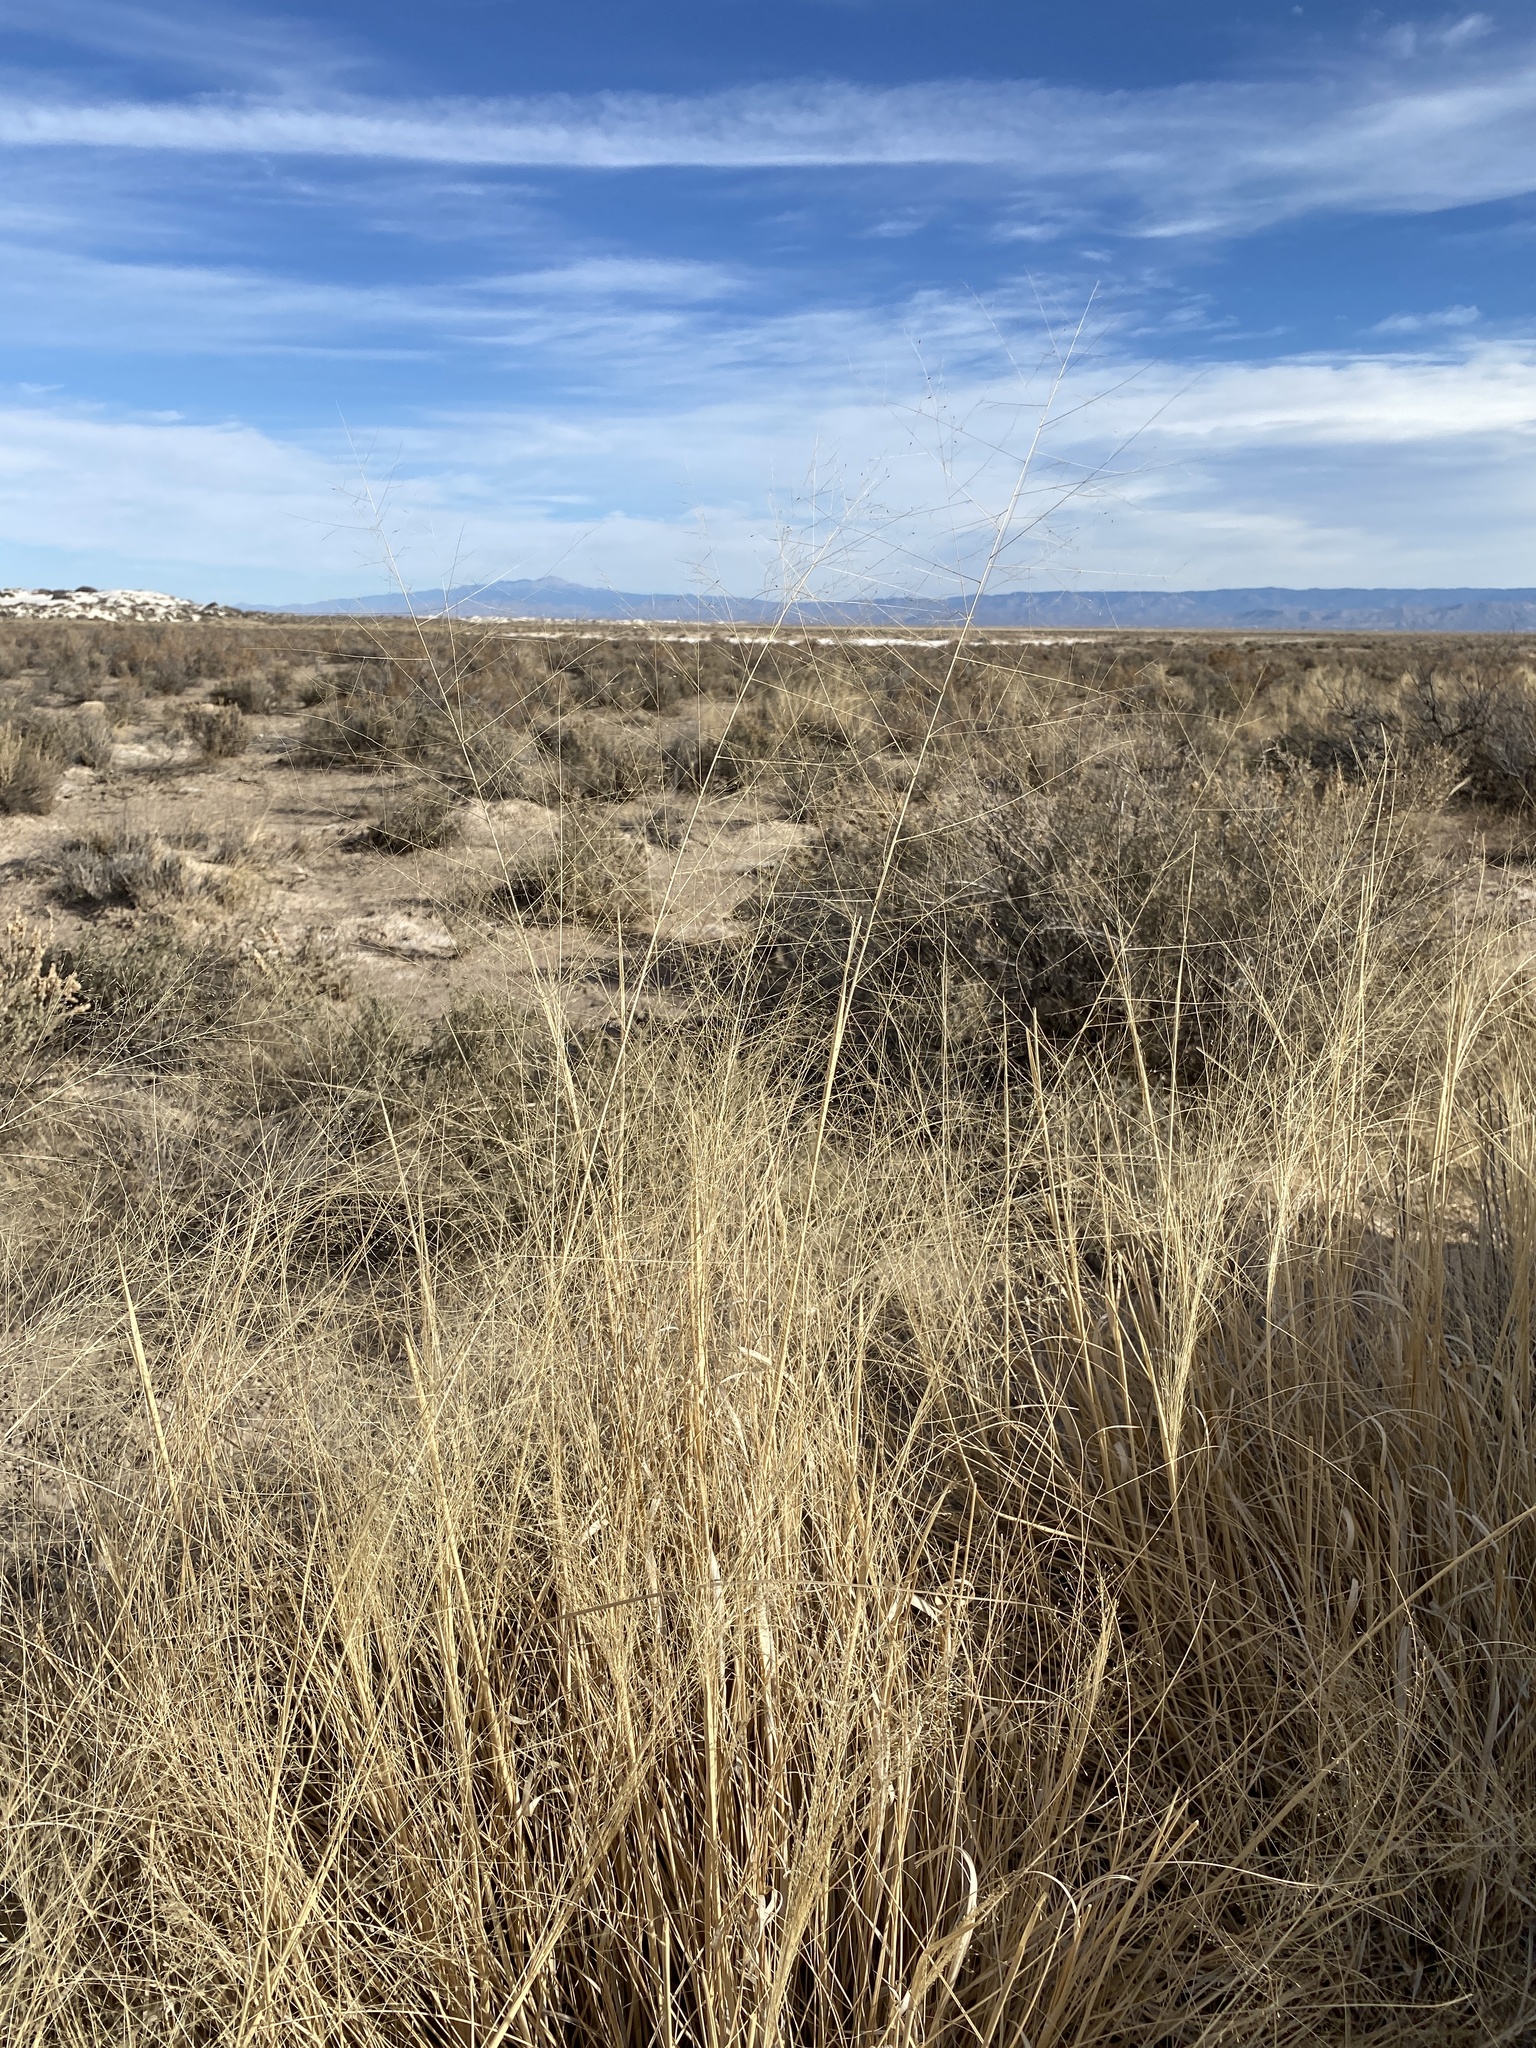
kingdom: Plantae
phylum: Tracheophyta
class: Liliopsida
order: Poales
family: Poaceae
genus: Sporobolus
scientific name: Sporobolus airoides
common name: Alkali sacaton
